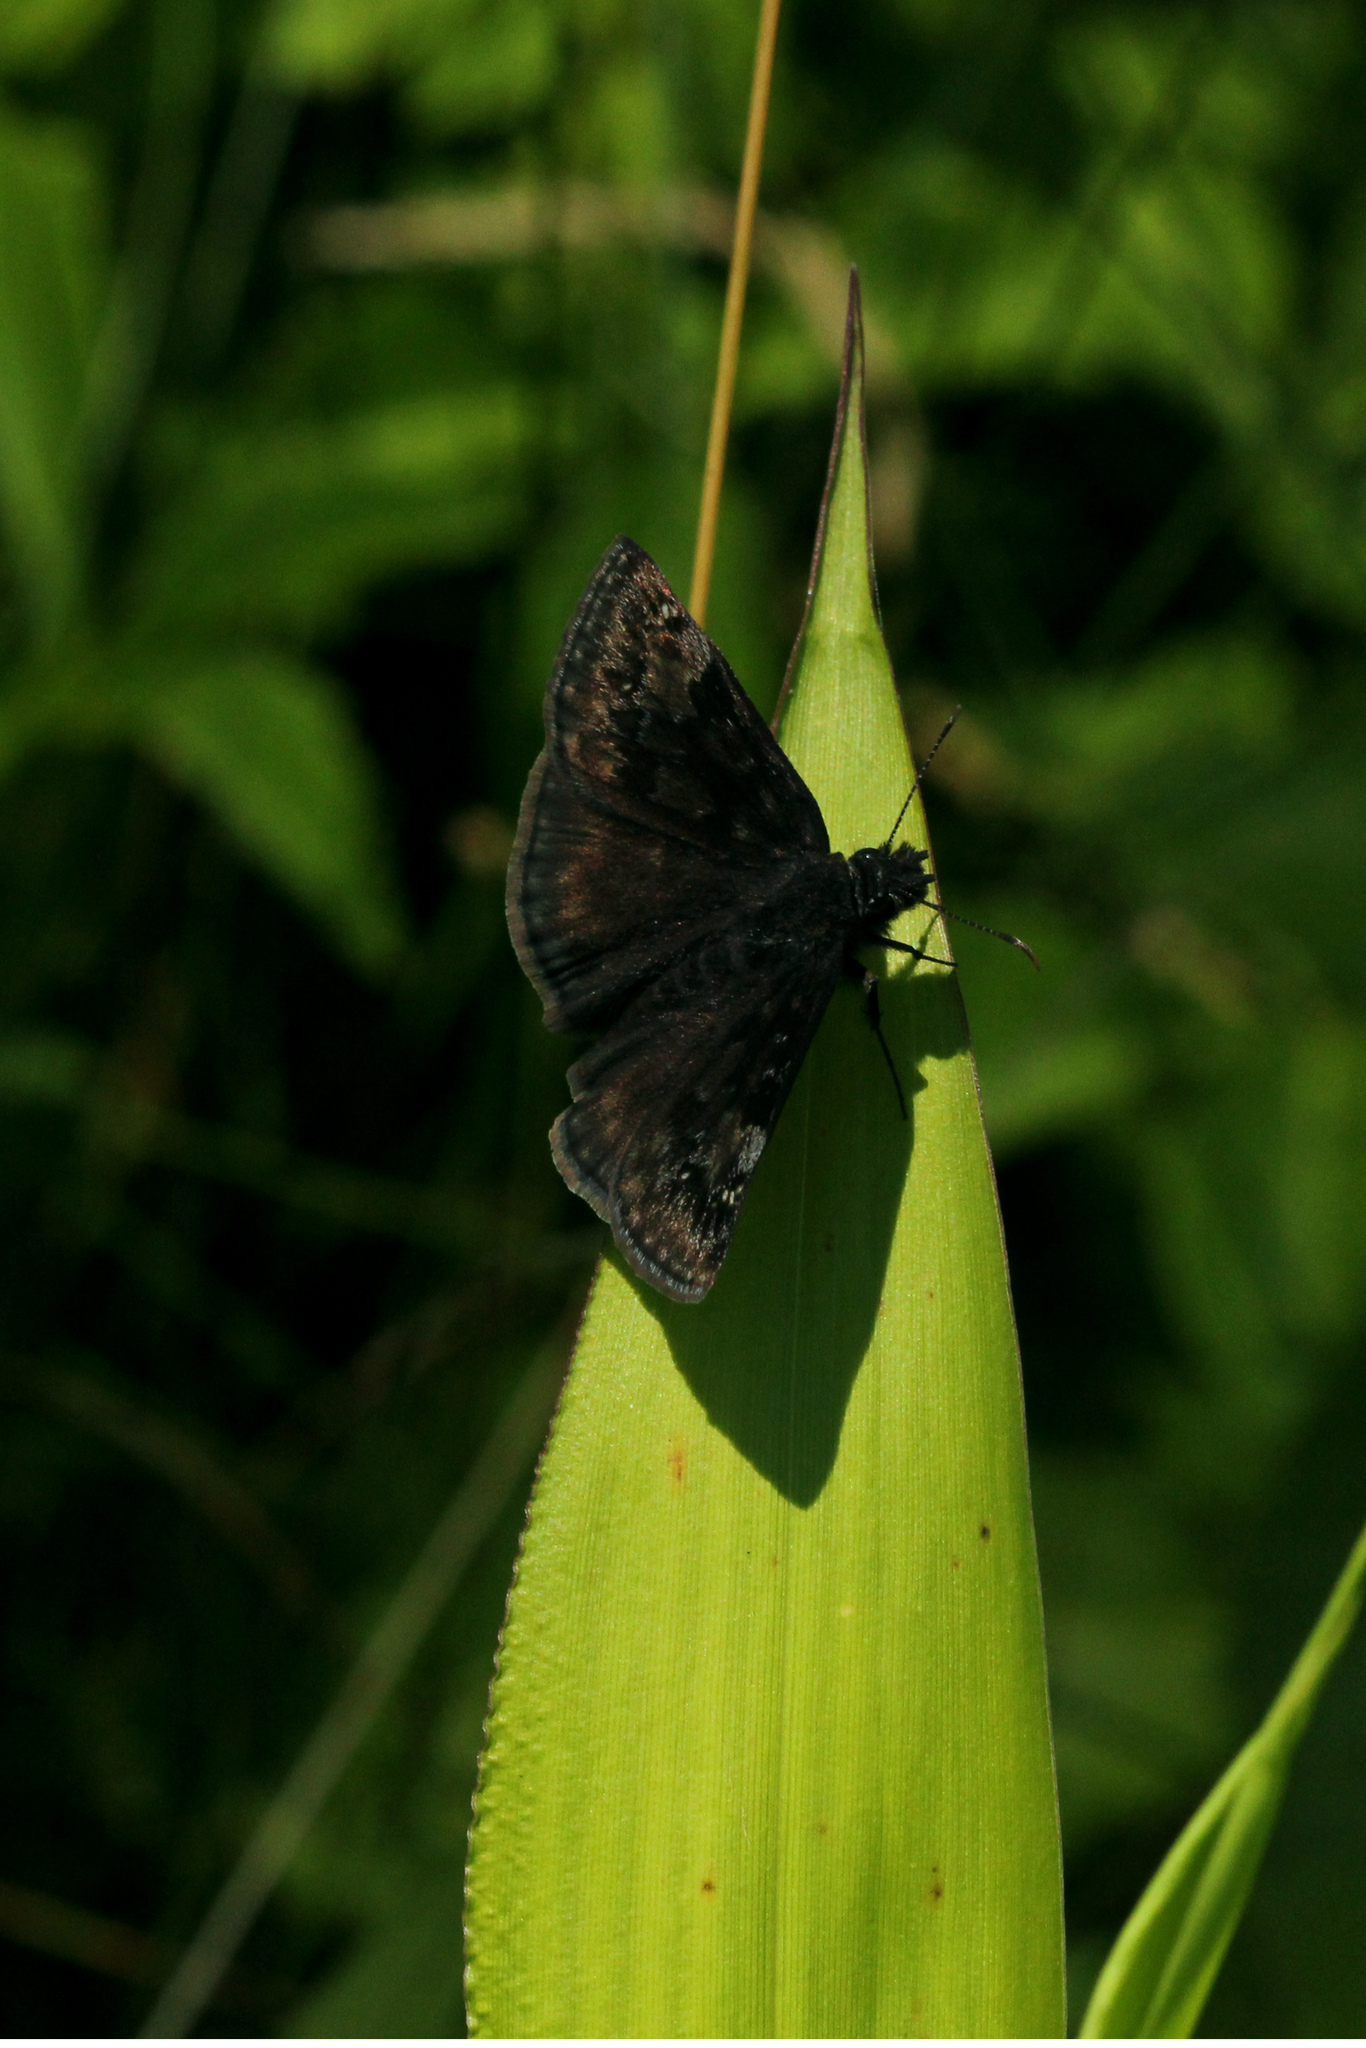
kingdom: Animalia
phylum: Arthropoda
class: Insecta
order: Lepidoptera
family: Hesperiidae
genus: Erynnis
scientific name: Erynnis baptisiae
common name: Wild indigo duskywing
